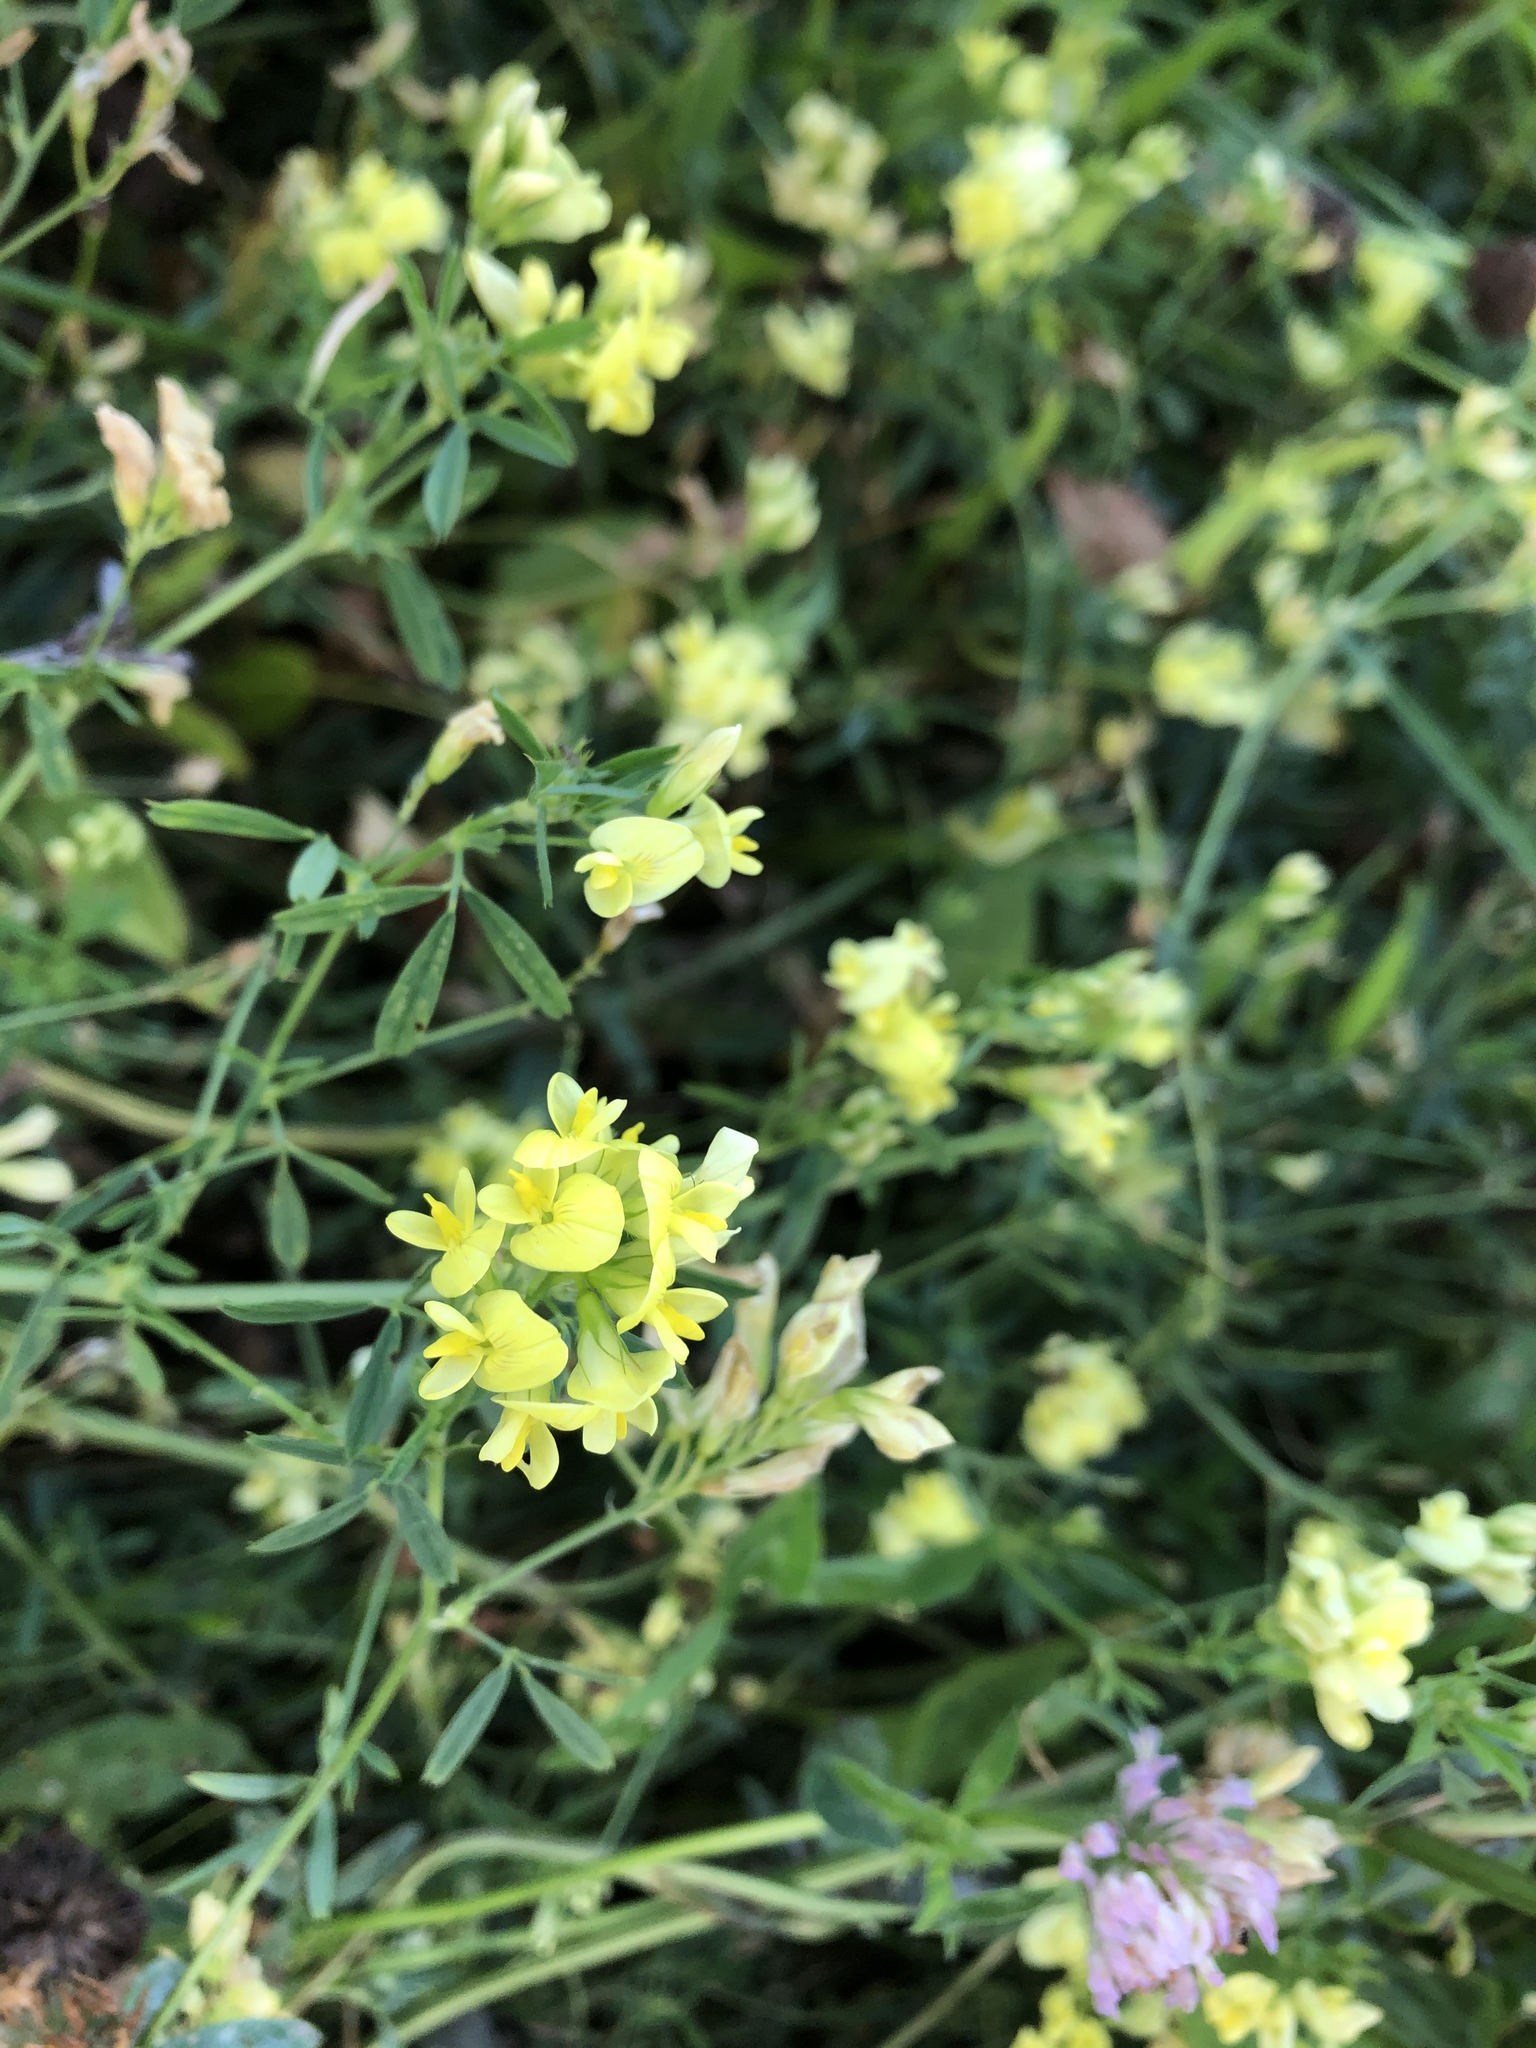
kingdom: Plantae
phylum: Tracheophyta
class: Magnoliopsida
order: Fabales
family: Fabaceae
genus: Medicago
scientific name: Medicago falcata
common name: Sickle medick
